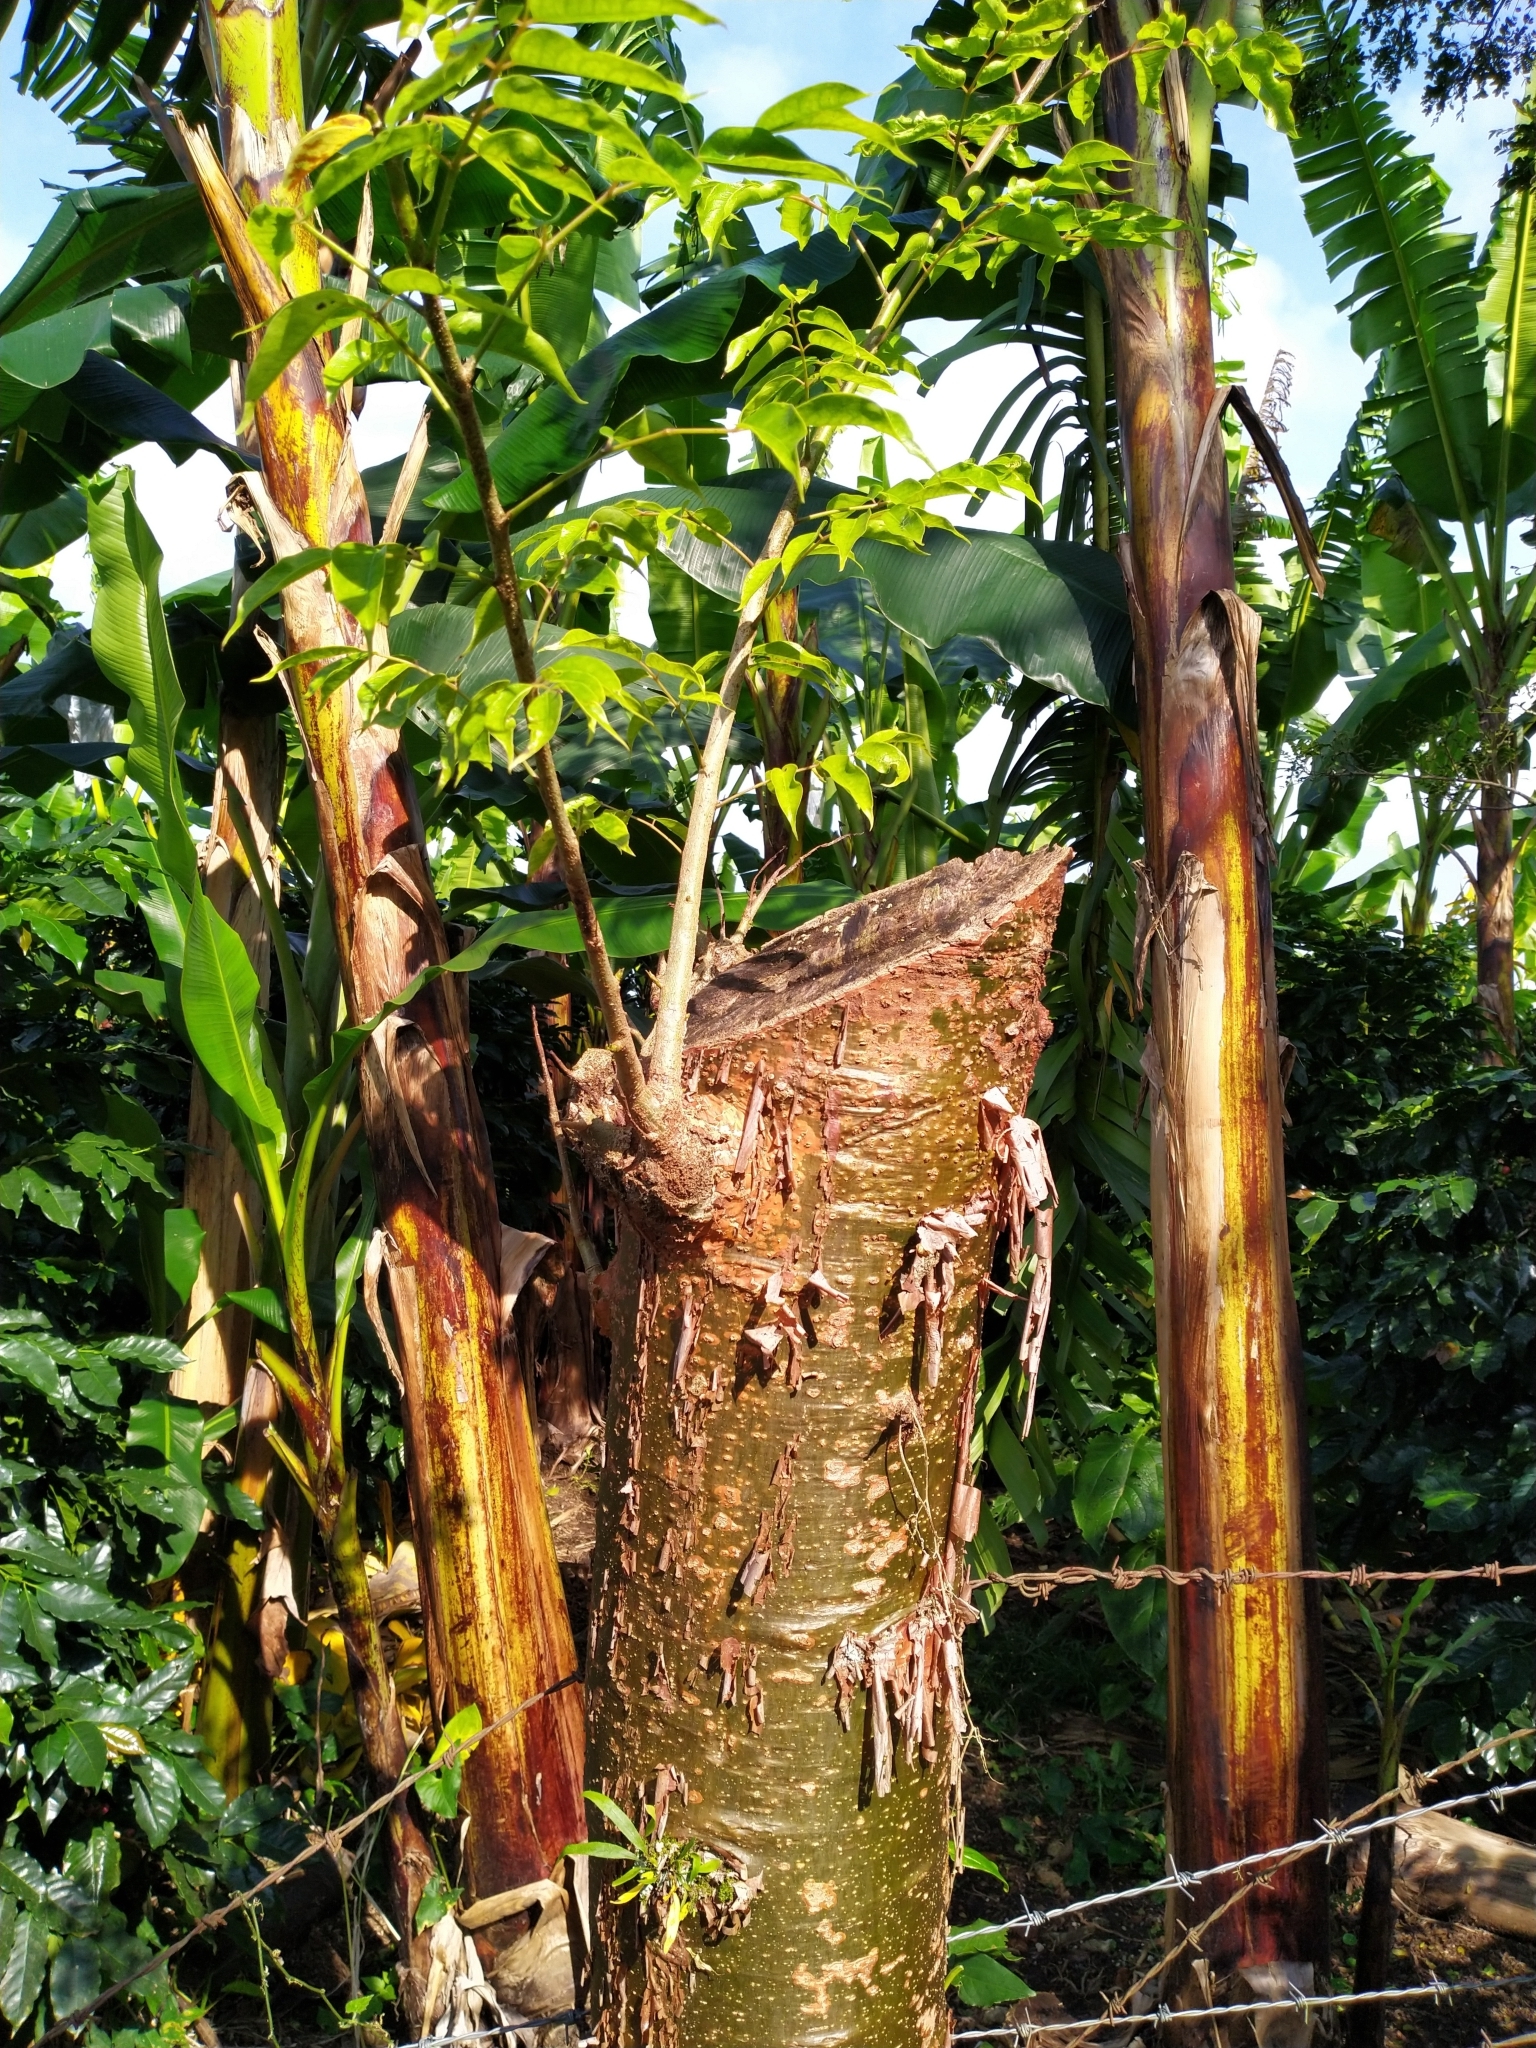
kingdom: Plantae
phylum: Tracheophyta
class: Magnoliopsida
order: Sapindales
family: Burseraceae
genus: Bursera
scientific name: Bursera simaruba
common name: Turpentine tree
